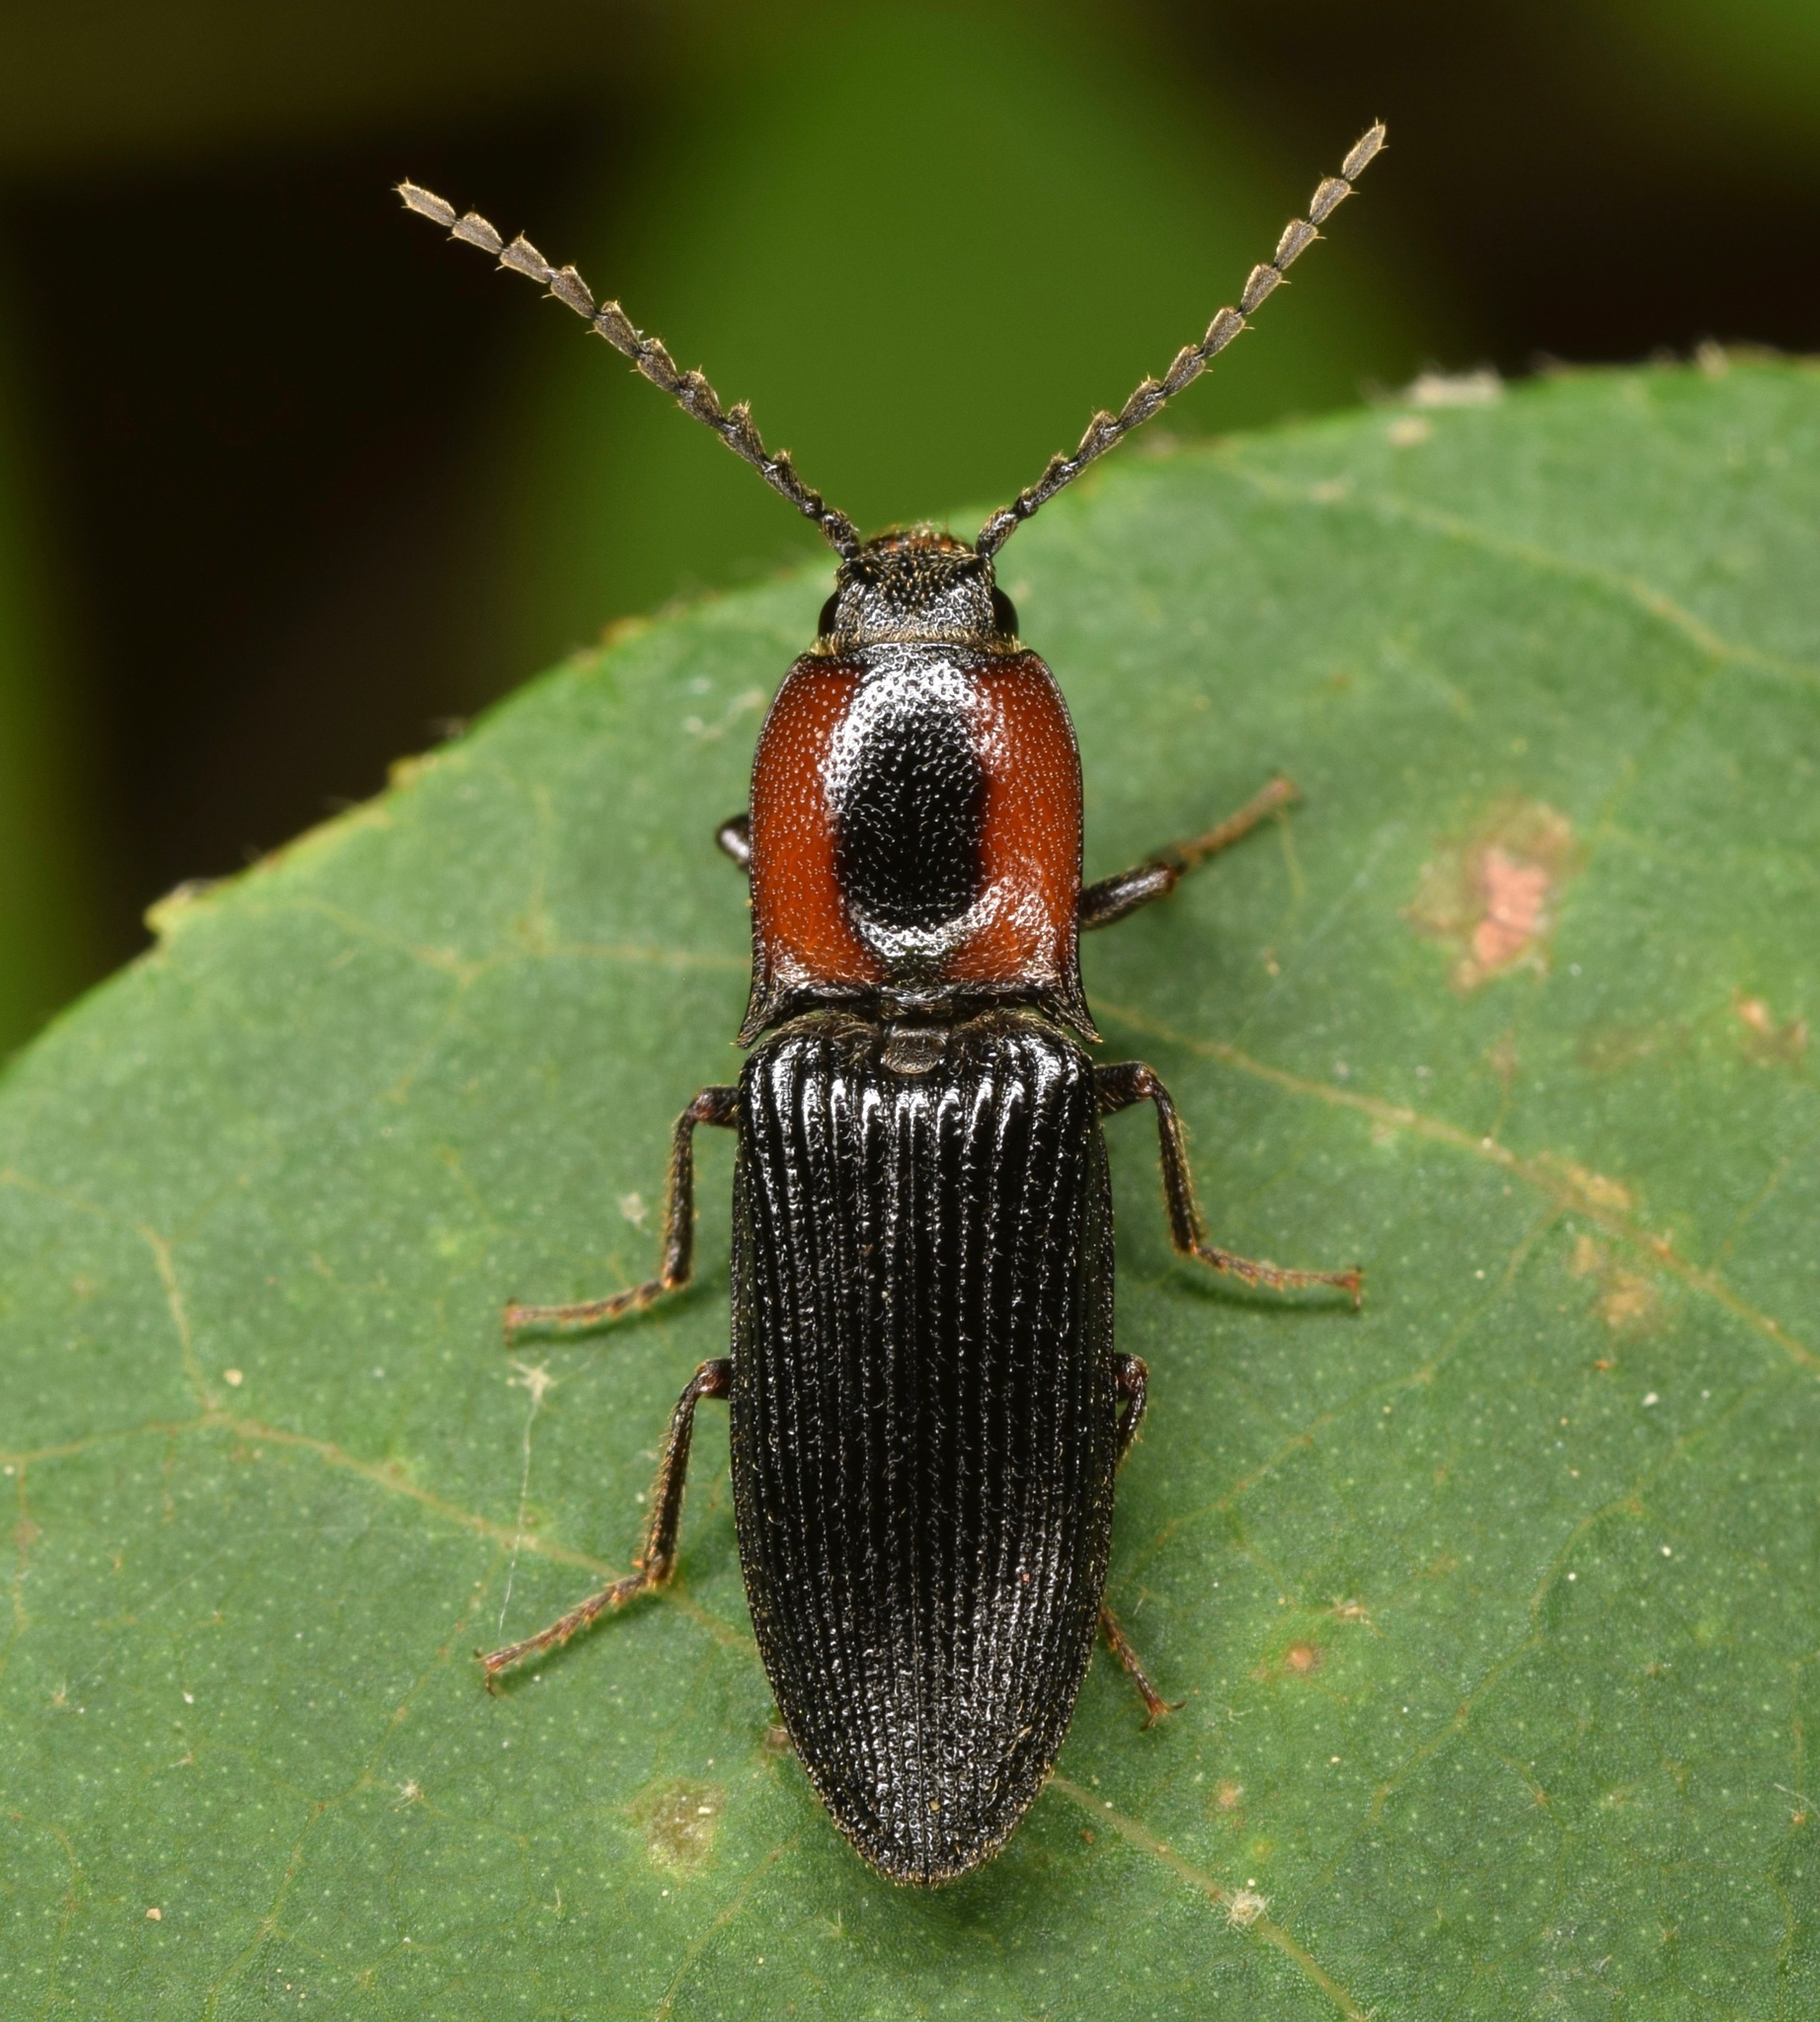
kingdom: Animalia
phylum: Arthropoda
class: Insecta
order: Coleoptera
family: Curculionidae
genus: Brownia
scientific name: Brownia
